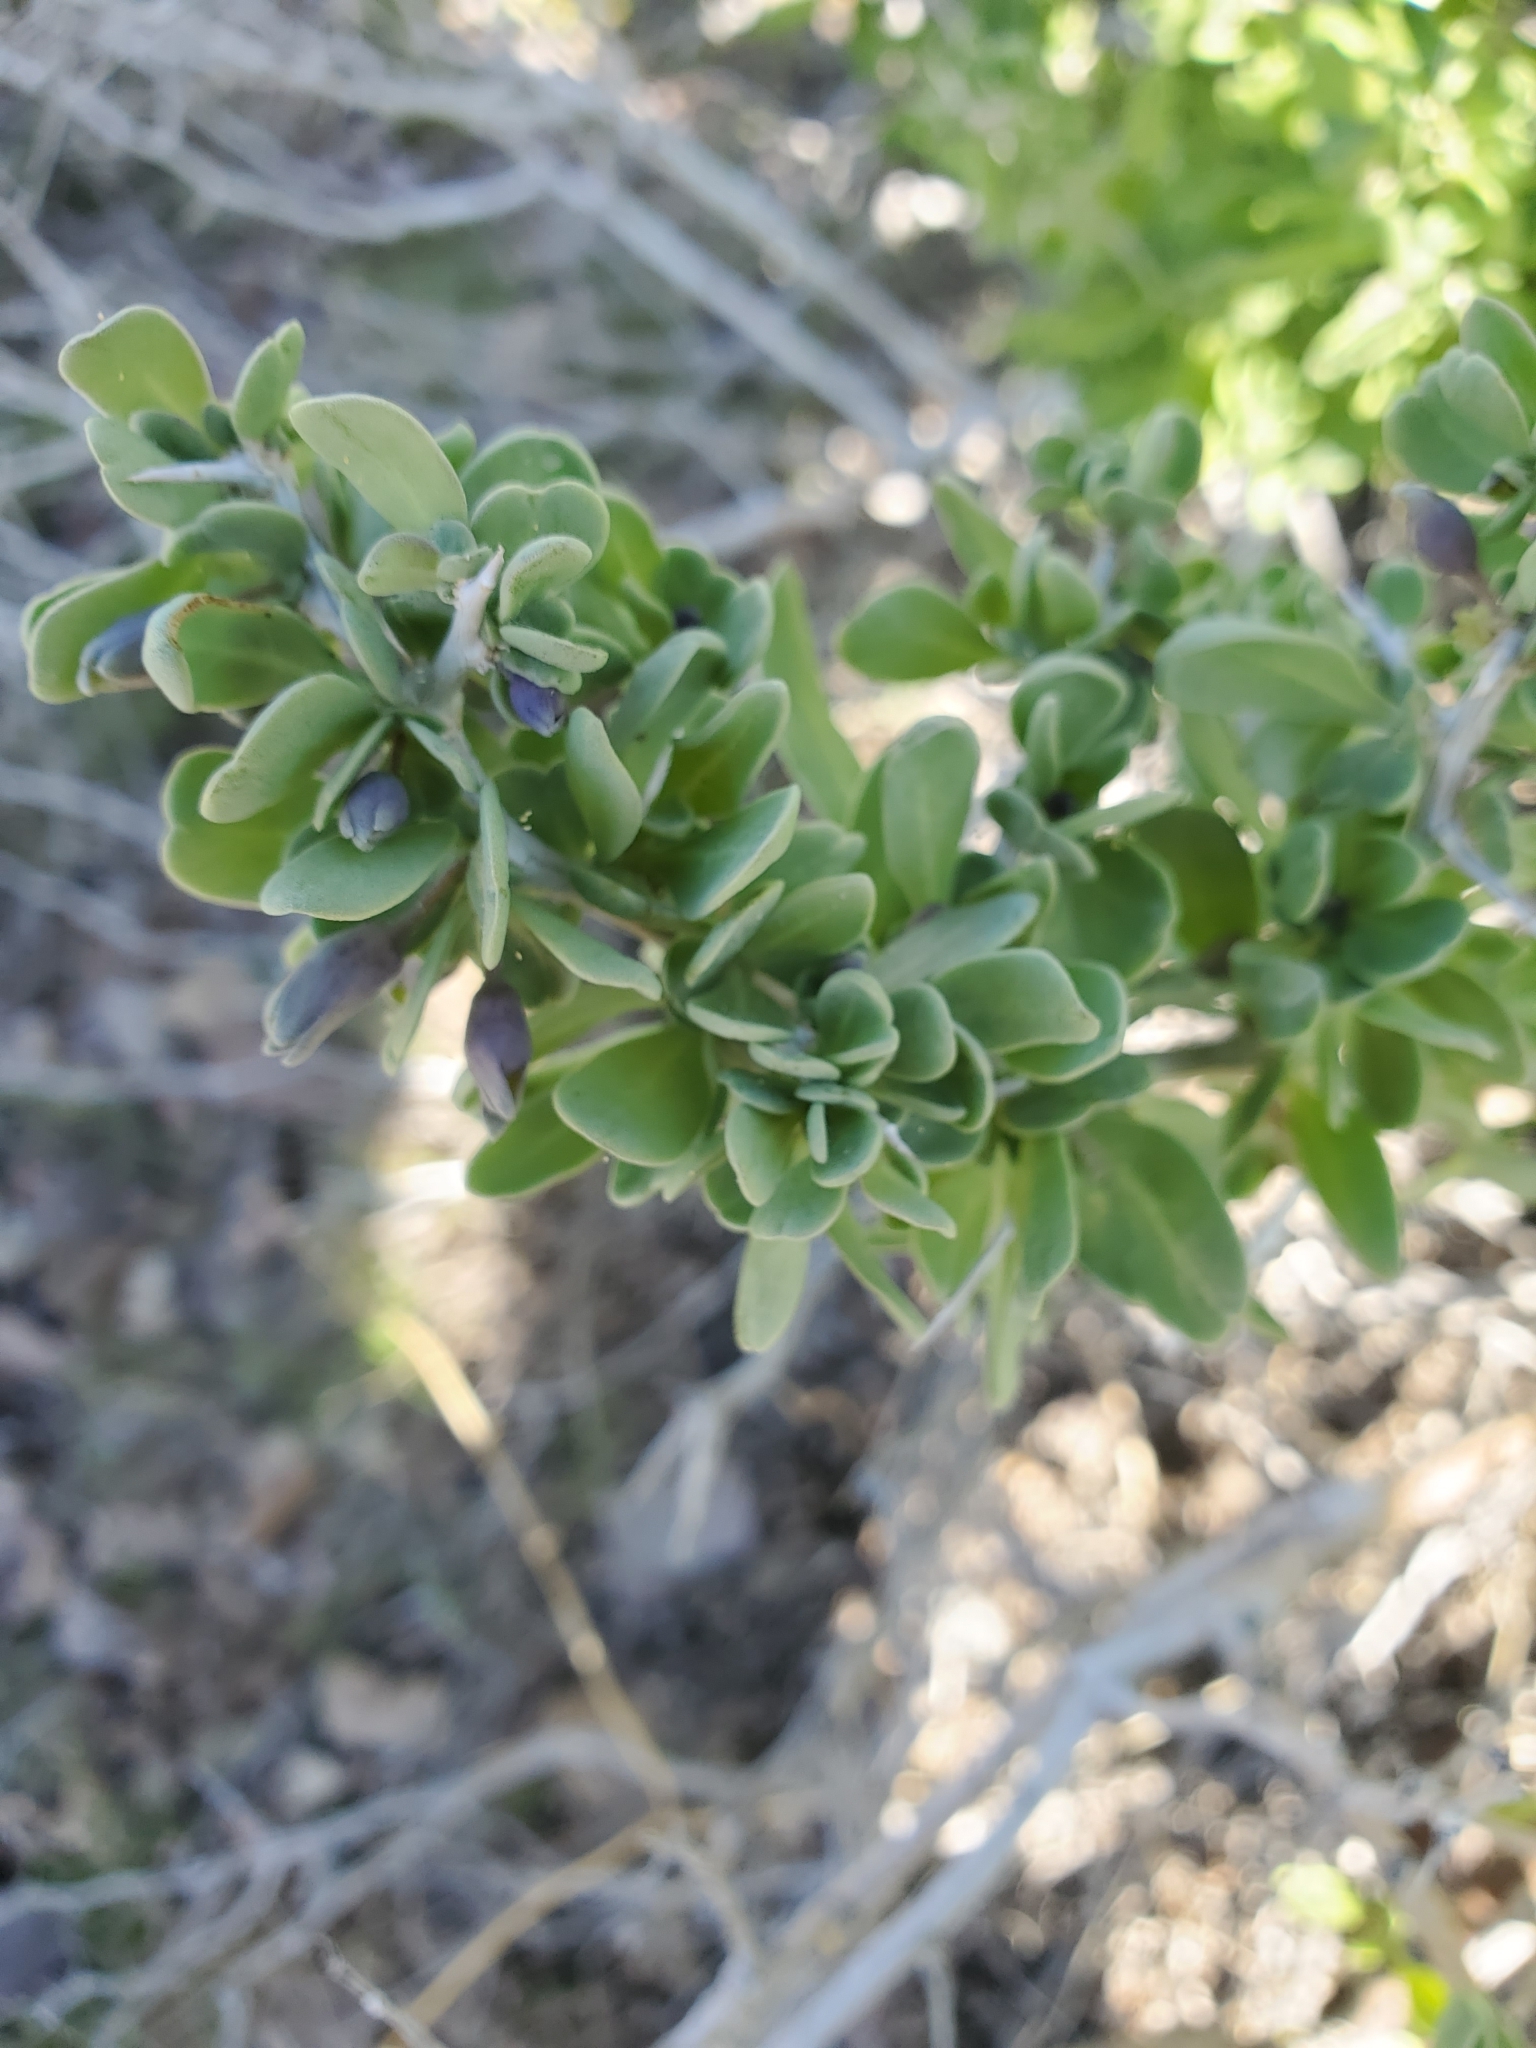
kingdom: Plantae
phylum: Tracheophyta
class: Magnoliopsida
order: Solanales
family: Solanaceae
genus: Lycium
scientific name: Lycium pallidum
